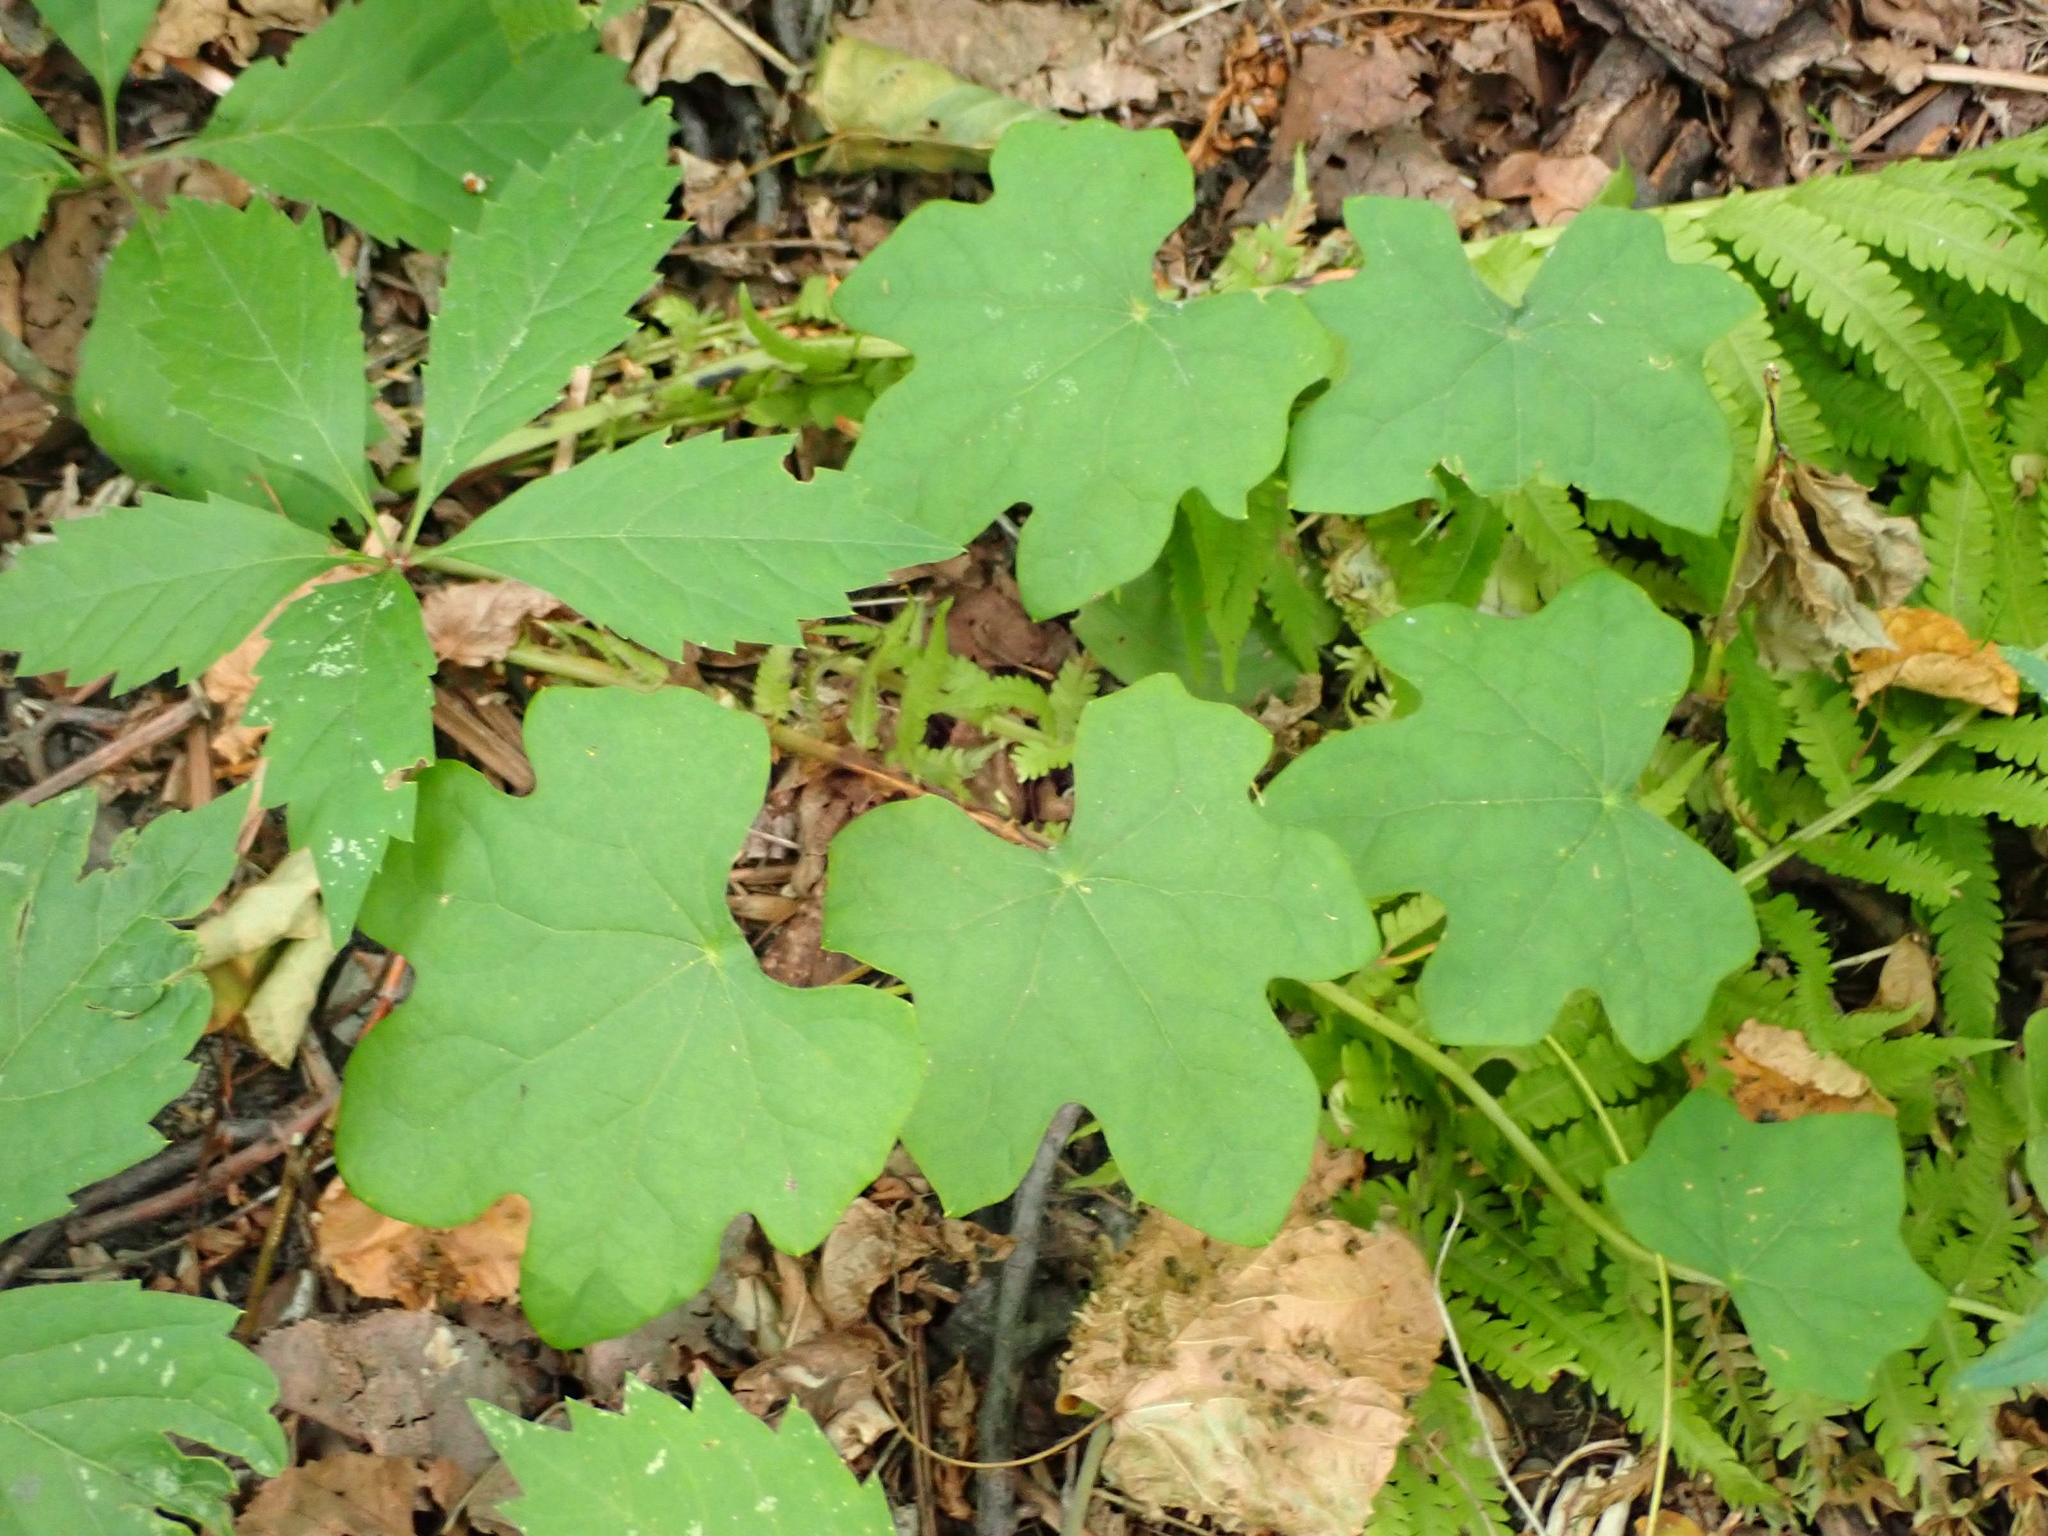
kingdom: Plantae
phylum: Tracheophyta
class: Magnoliopsida
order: Ranunculales
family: Menispermaceae
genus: Menispermum
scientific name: Menispermum canadense
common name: Moonseed
